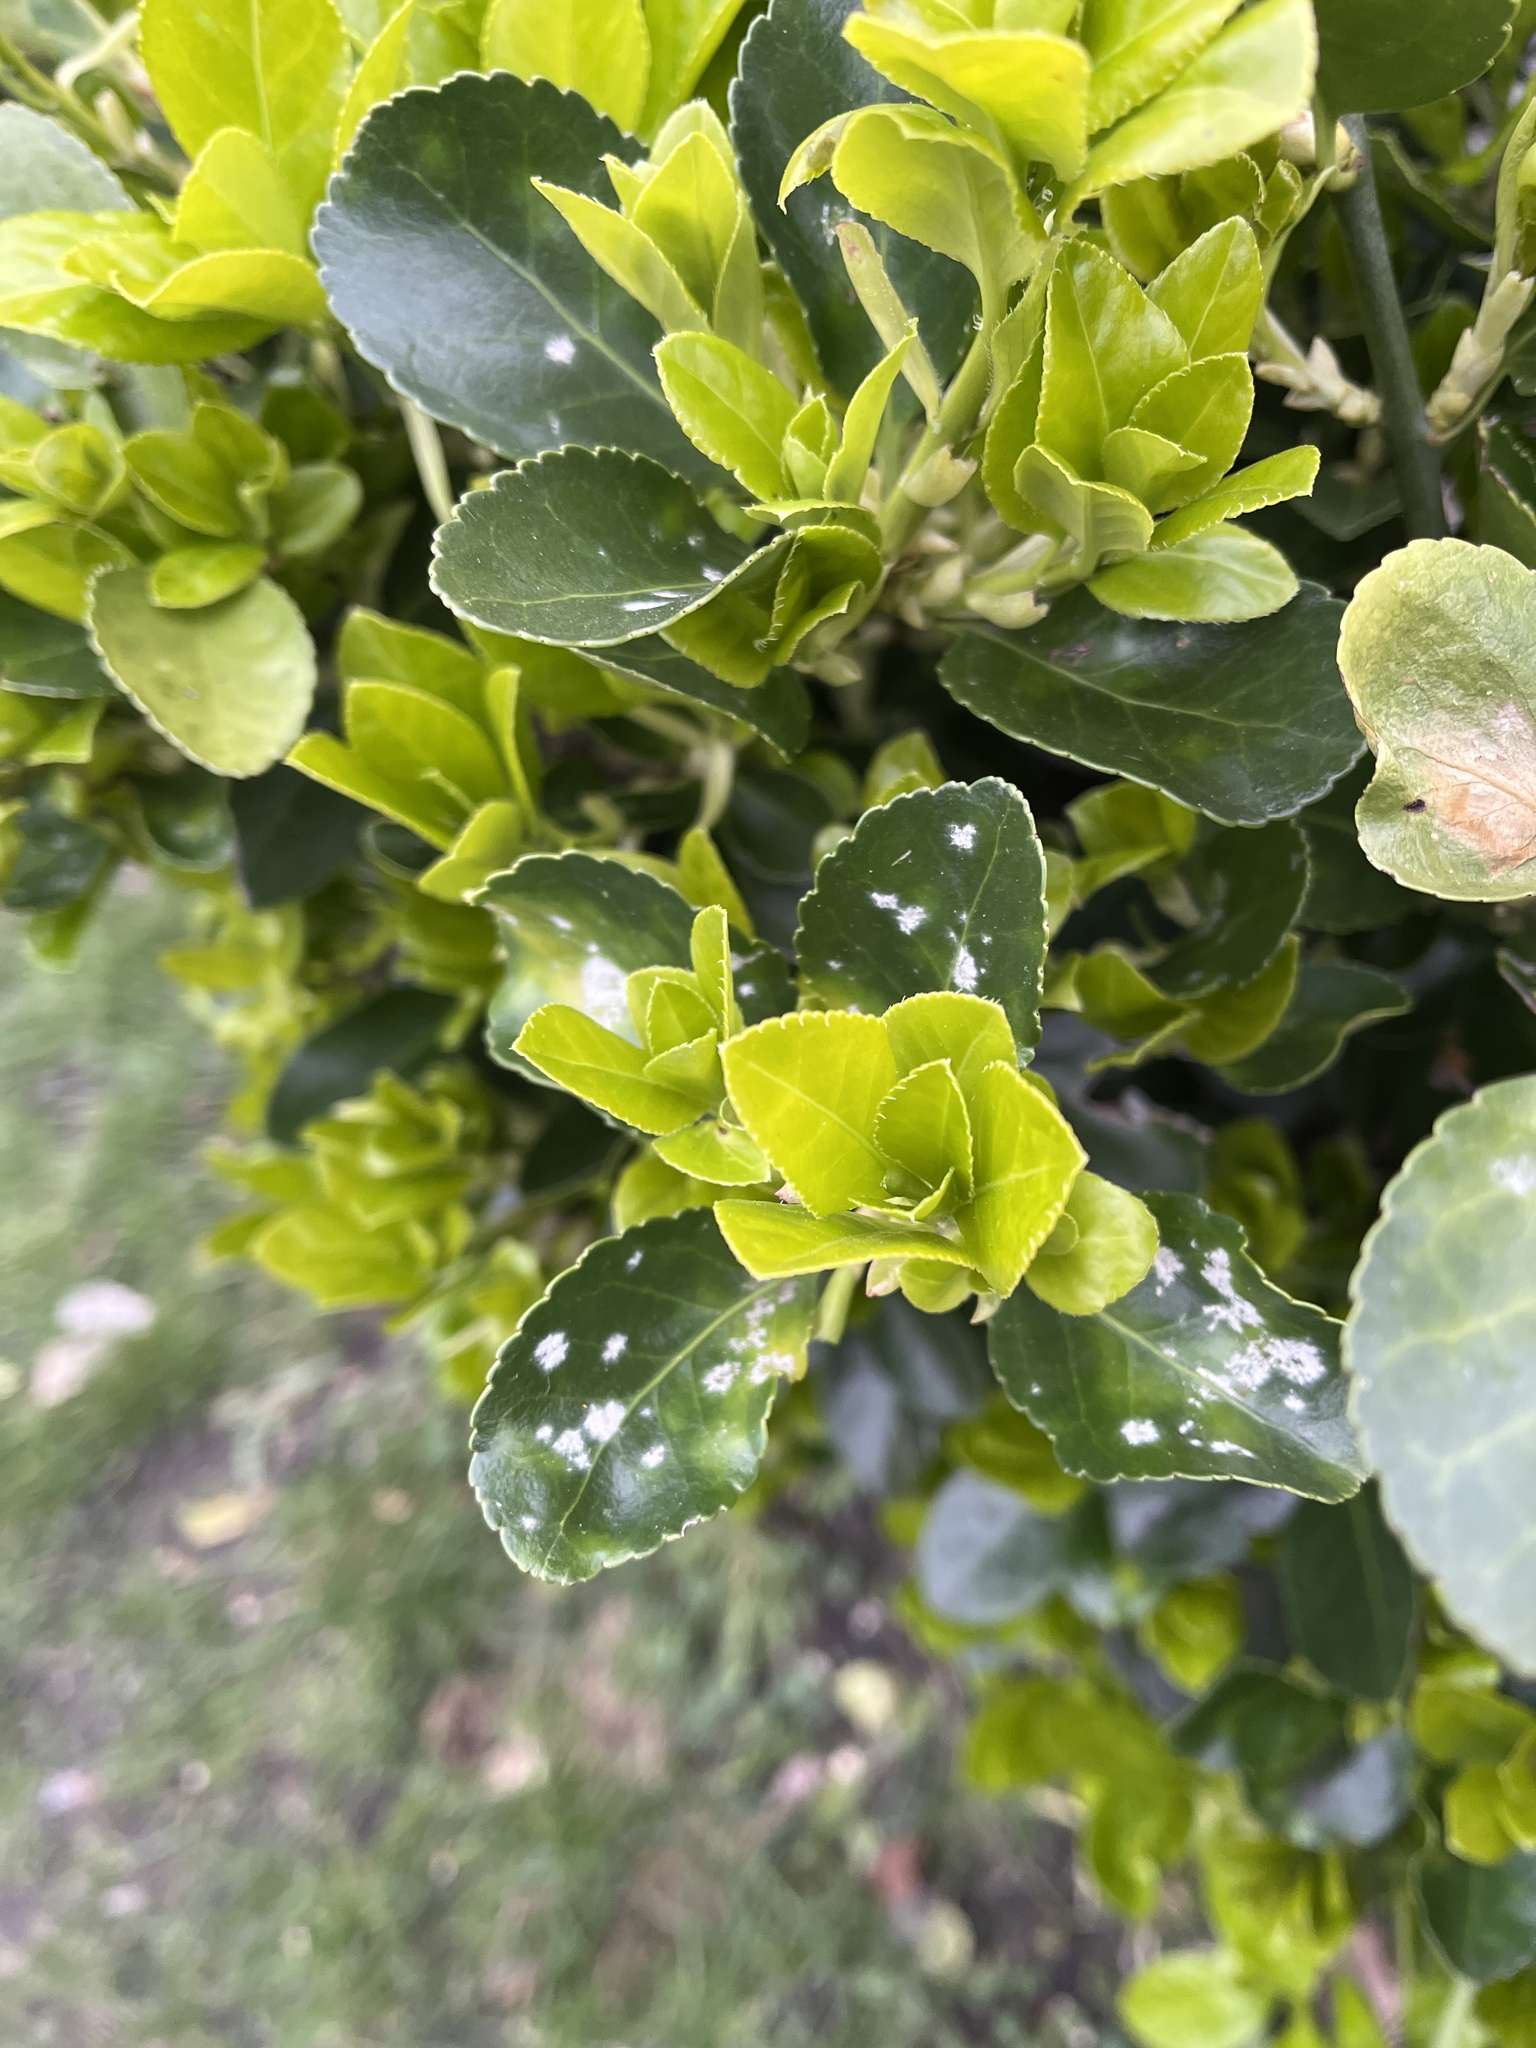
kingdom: Fungi
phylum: Ascomycota
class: Leotiomycetes
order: Helotiales
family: Erysiphaceae
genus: Erysiphe
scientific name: Erysiphe euonymicola
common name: Spindletree mildew
